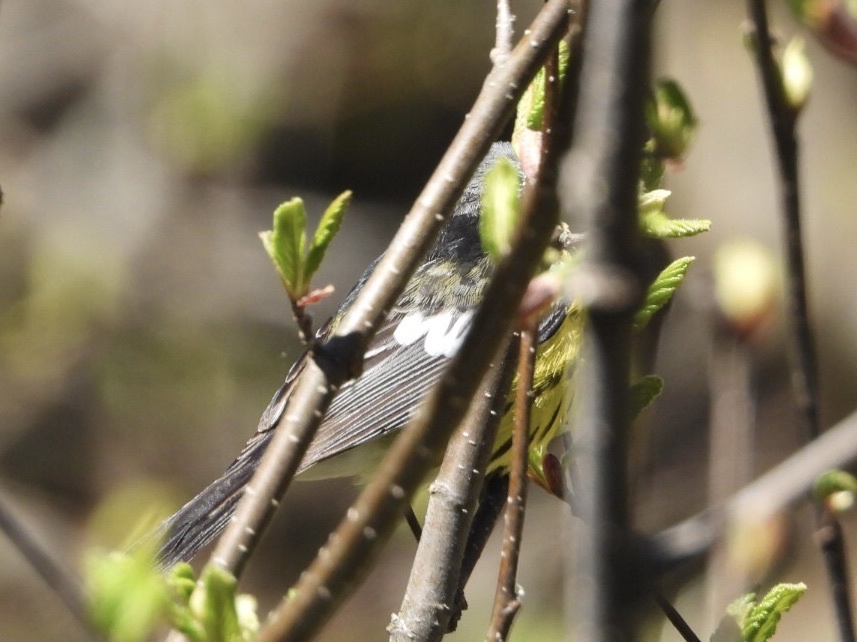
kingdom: Animalia
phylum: Chordata
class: Aves
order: Passeriformes
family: Parulidae
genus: Setophaga
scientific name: Setophaga magnolia
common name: Magnolia warbler
